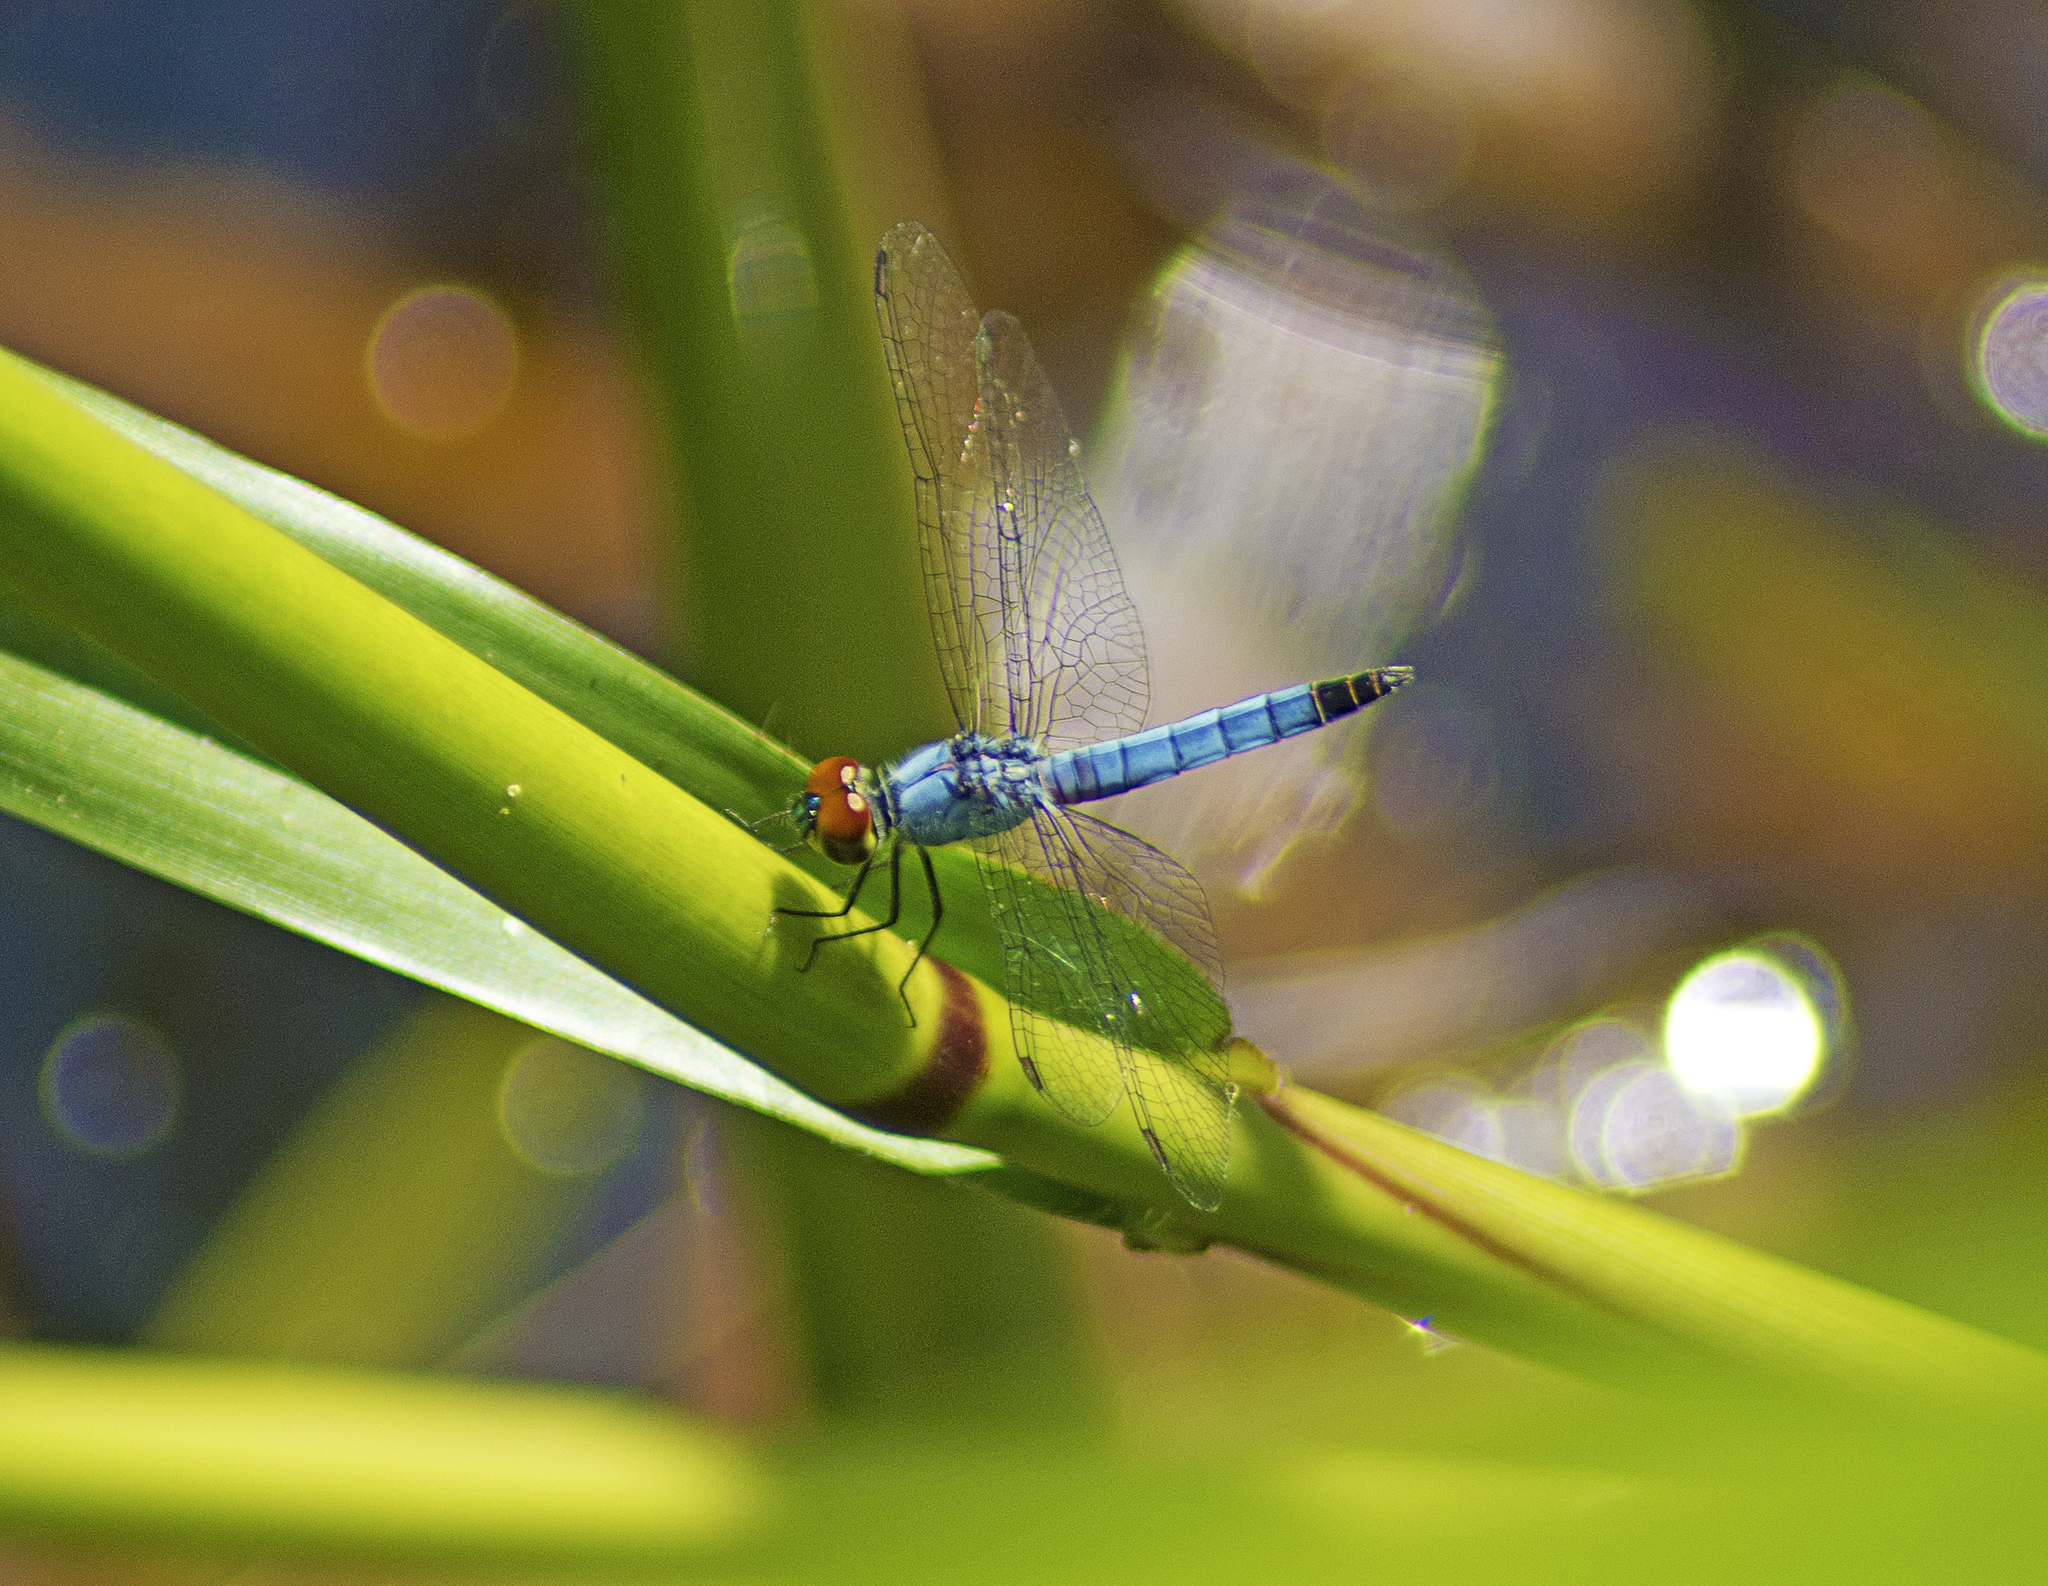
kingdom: Animalia
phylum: Arthropoda
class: Insecta
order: Odonata
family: Libellulidae
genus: Brachydiplax
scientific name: Brachydiplax denticauda
